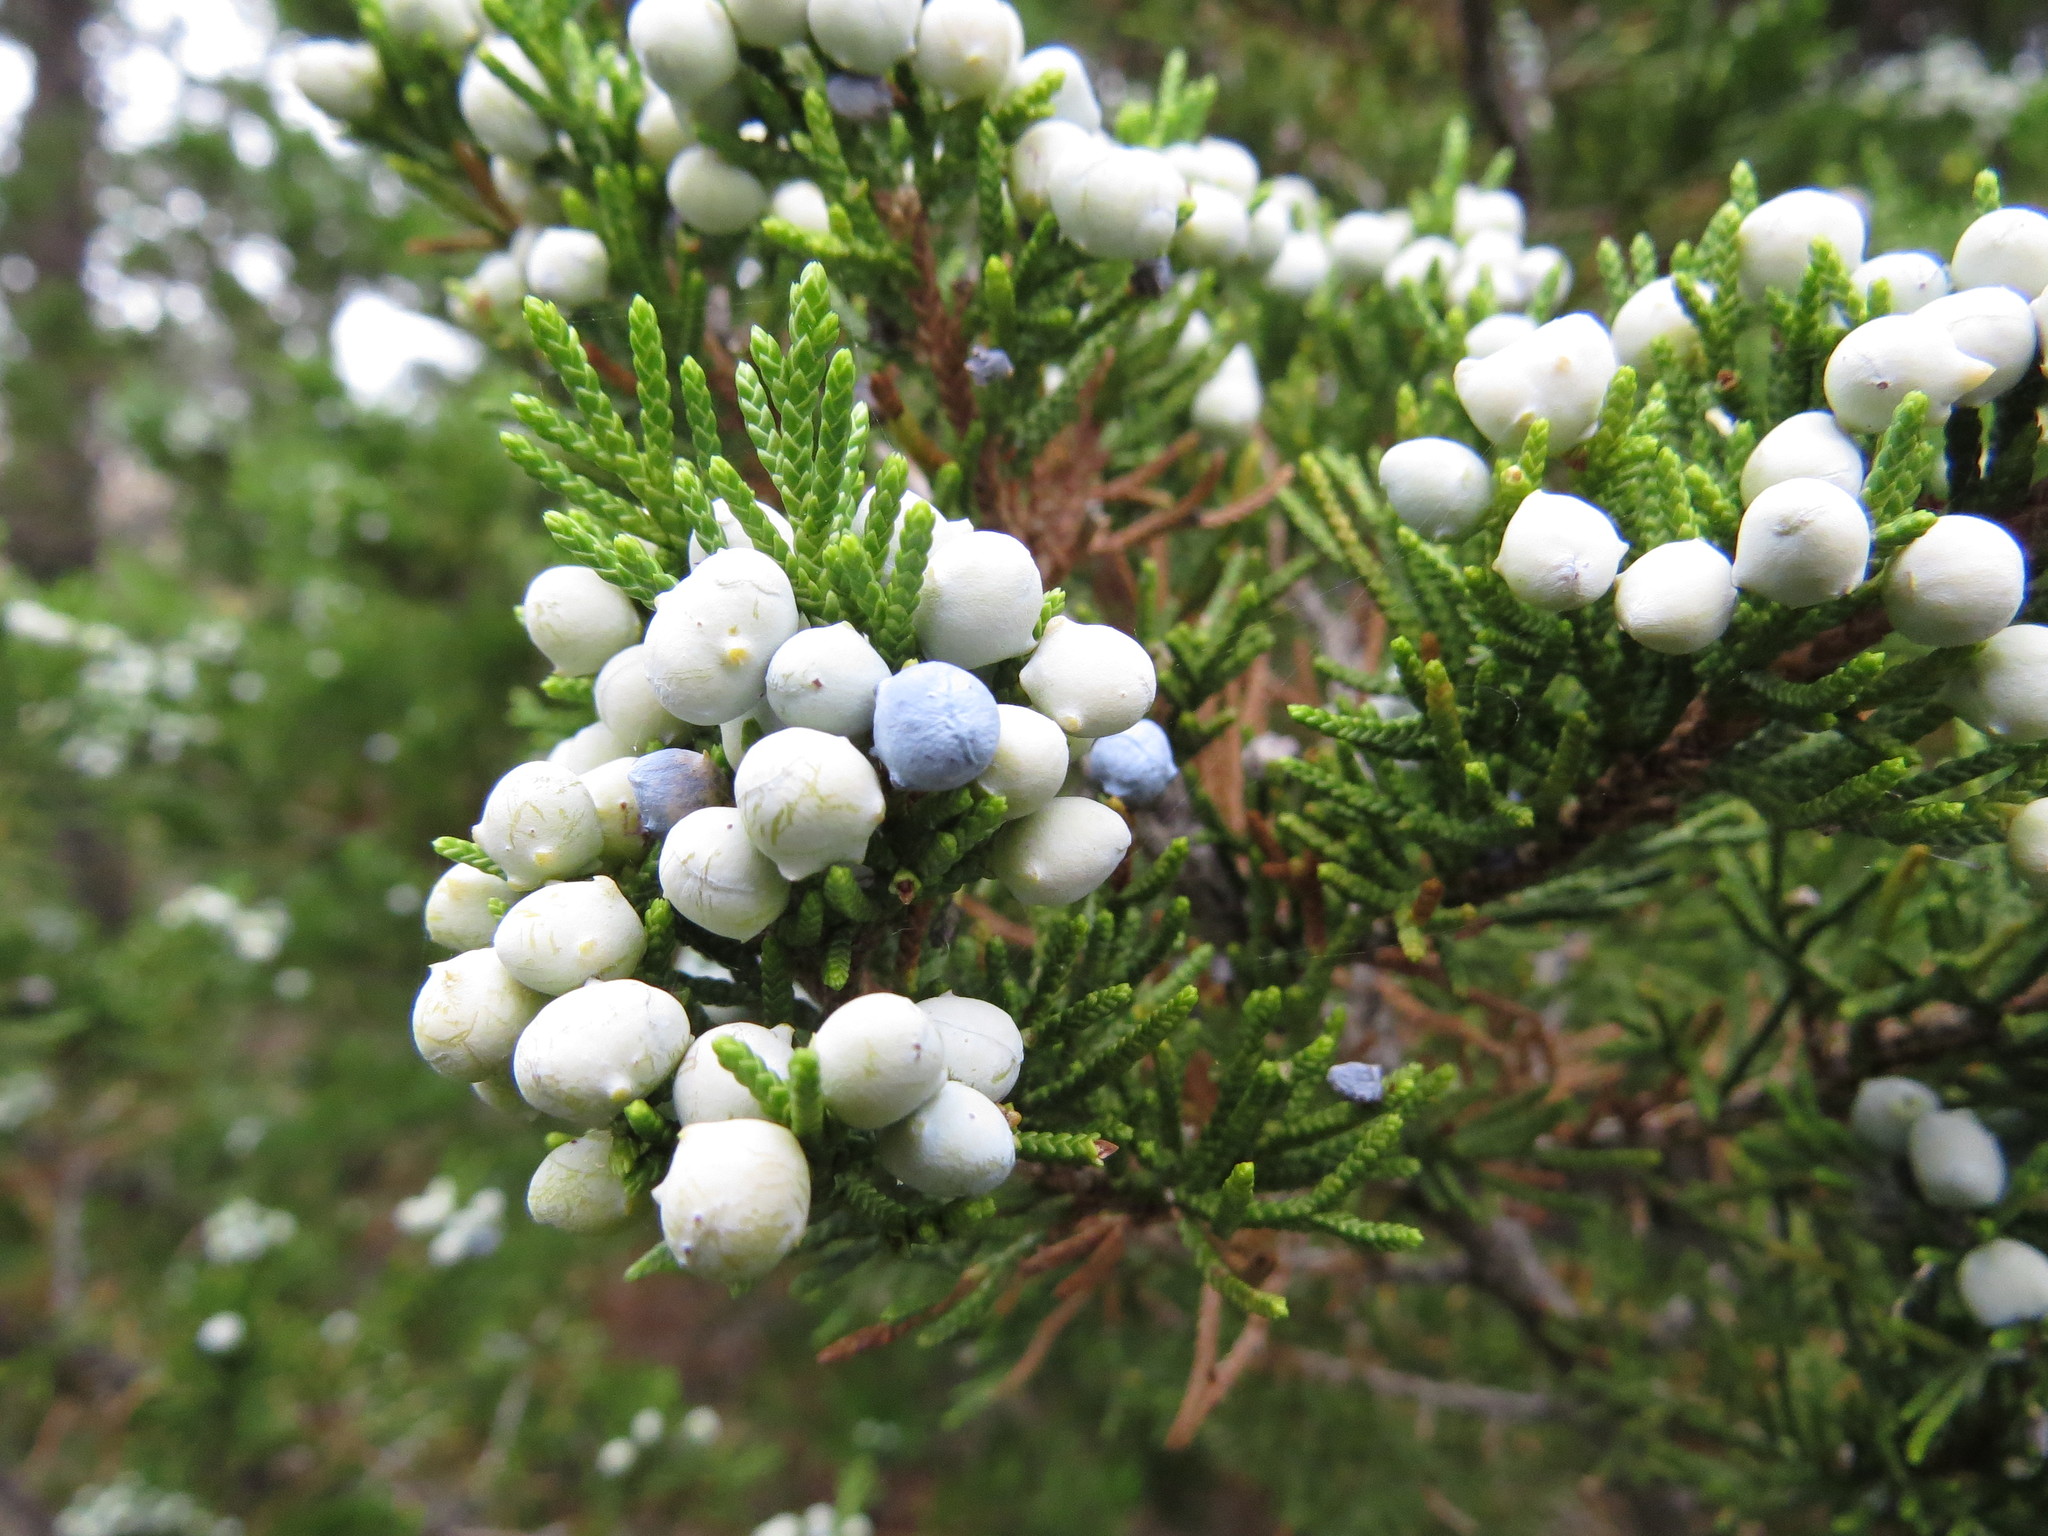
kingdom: Plantae
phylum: Tracheophyta
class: Pinopsida
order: Pinales
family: Cupressaceae
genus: Juniperus
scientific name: Juniperus virginiana
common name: Red juniper
